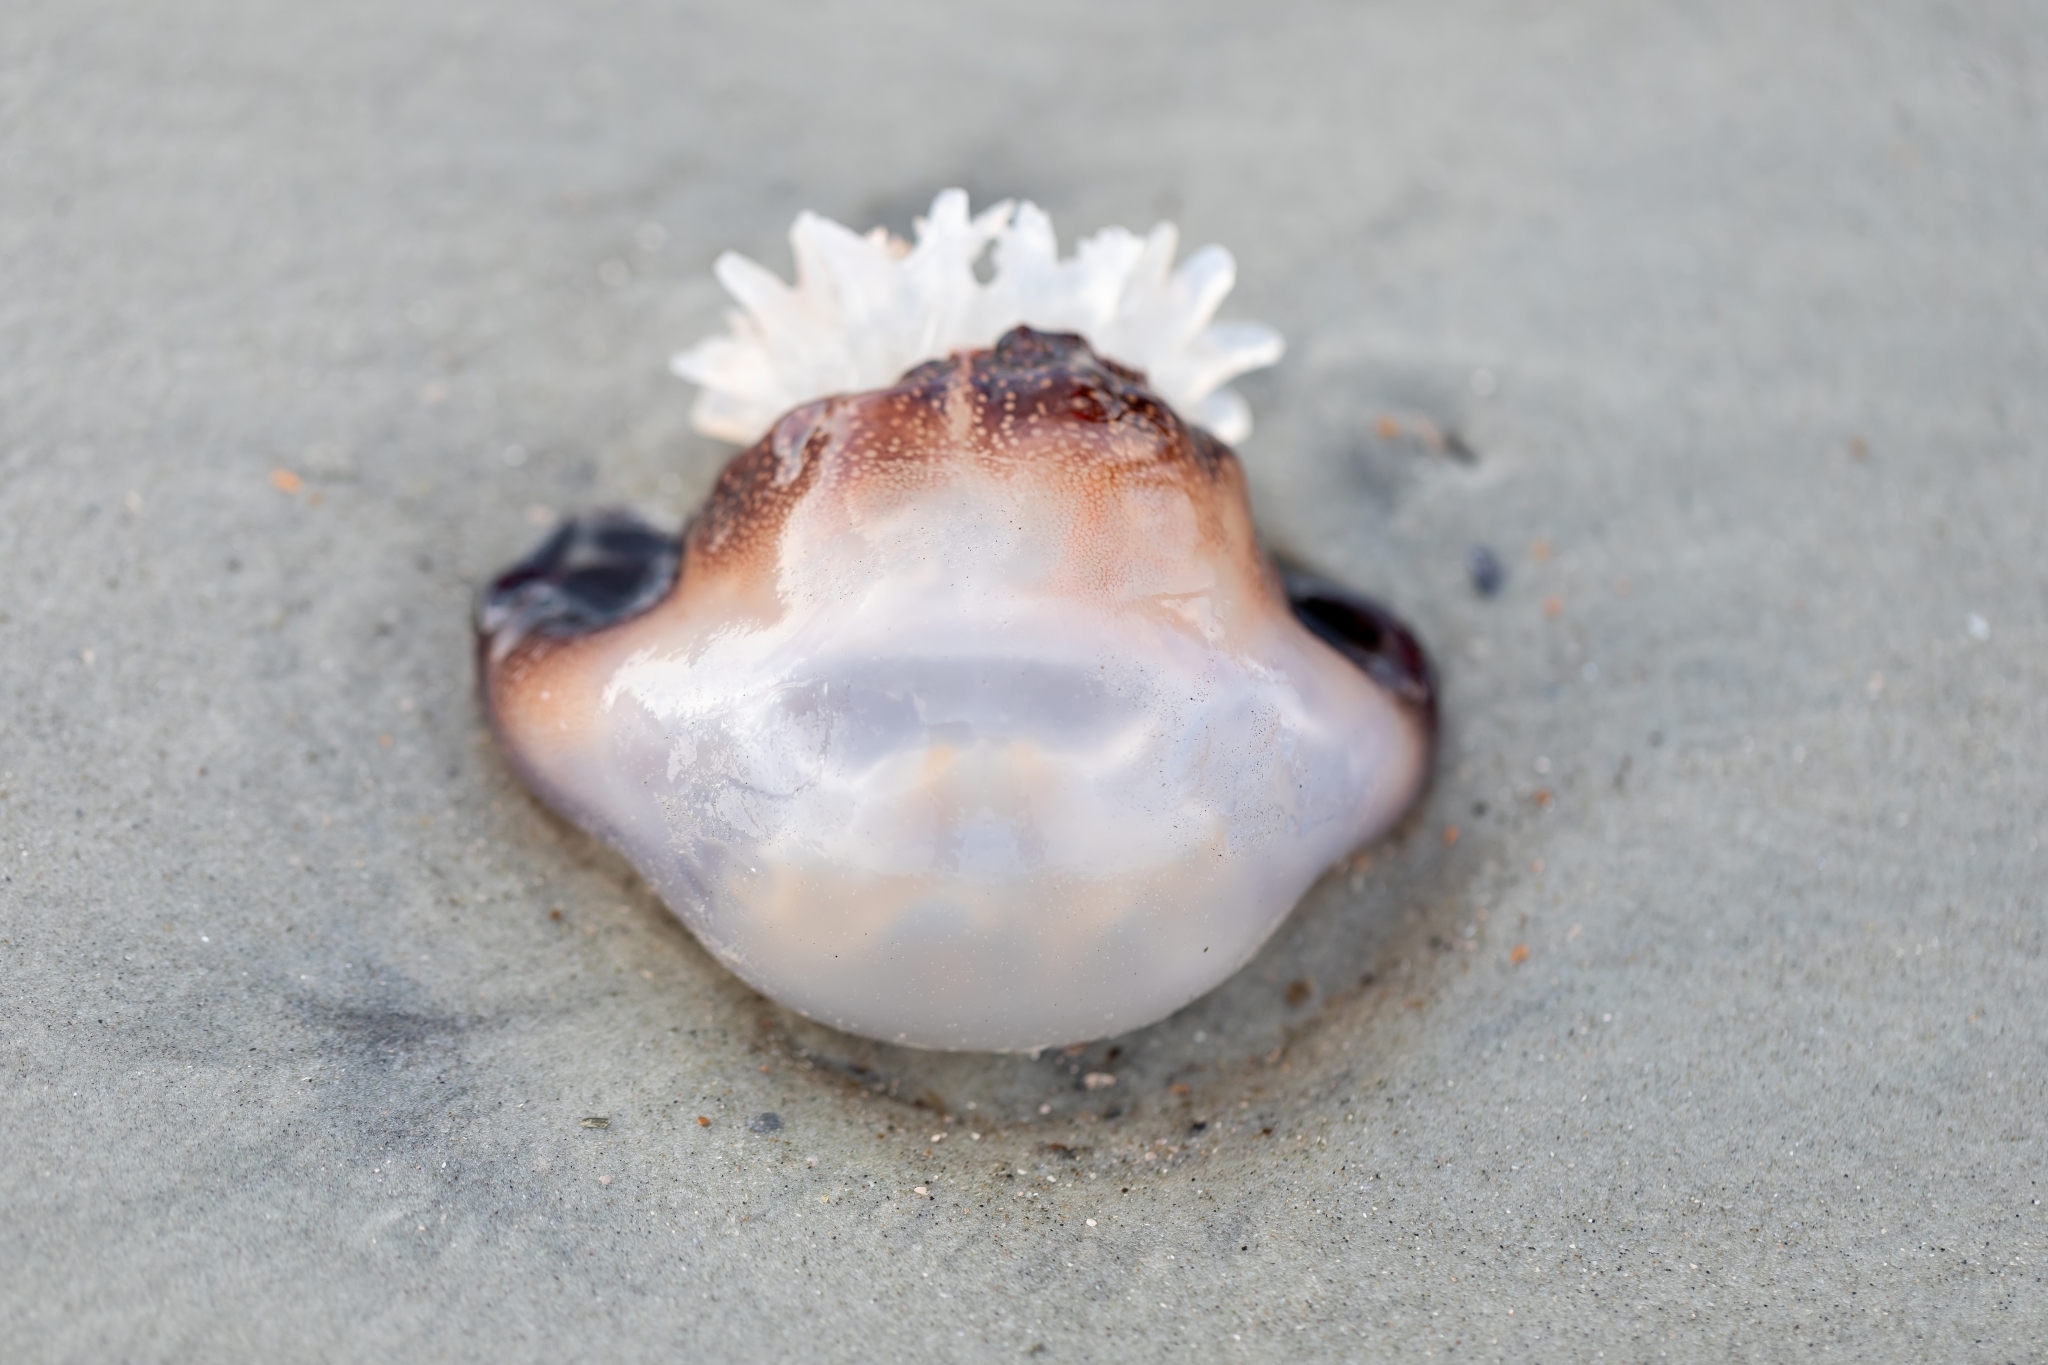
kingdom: Animalia
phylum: Cnidaria
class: Scyphozoa
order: Rhizostomeae
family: Stomolophidae
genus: Stomolophus
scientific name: Stomolophus meleagris
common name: Cabbagehead
